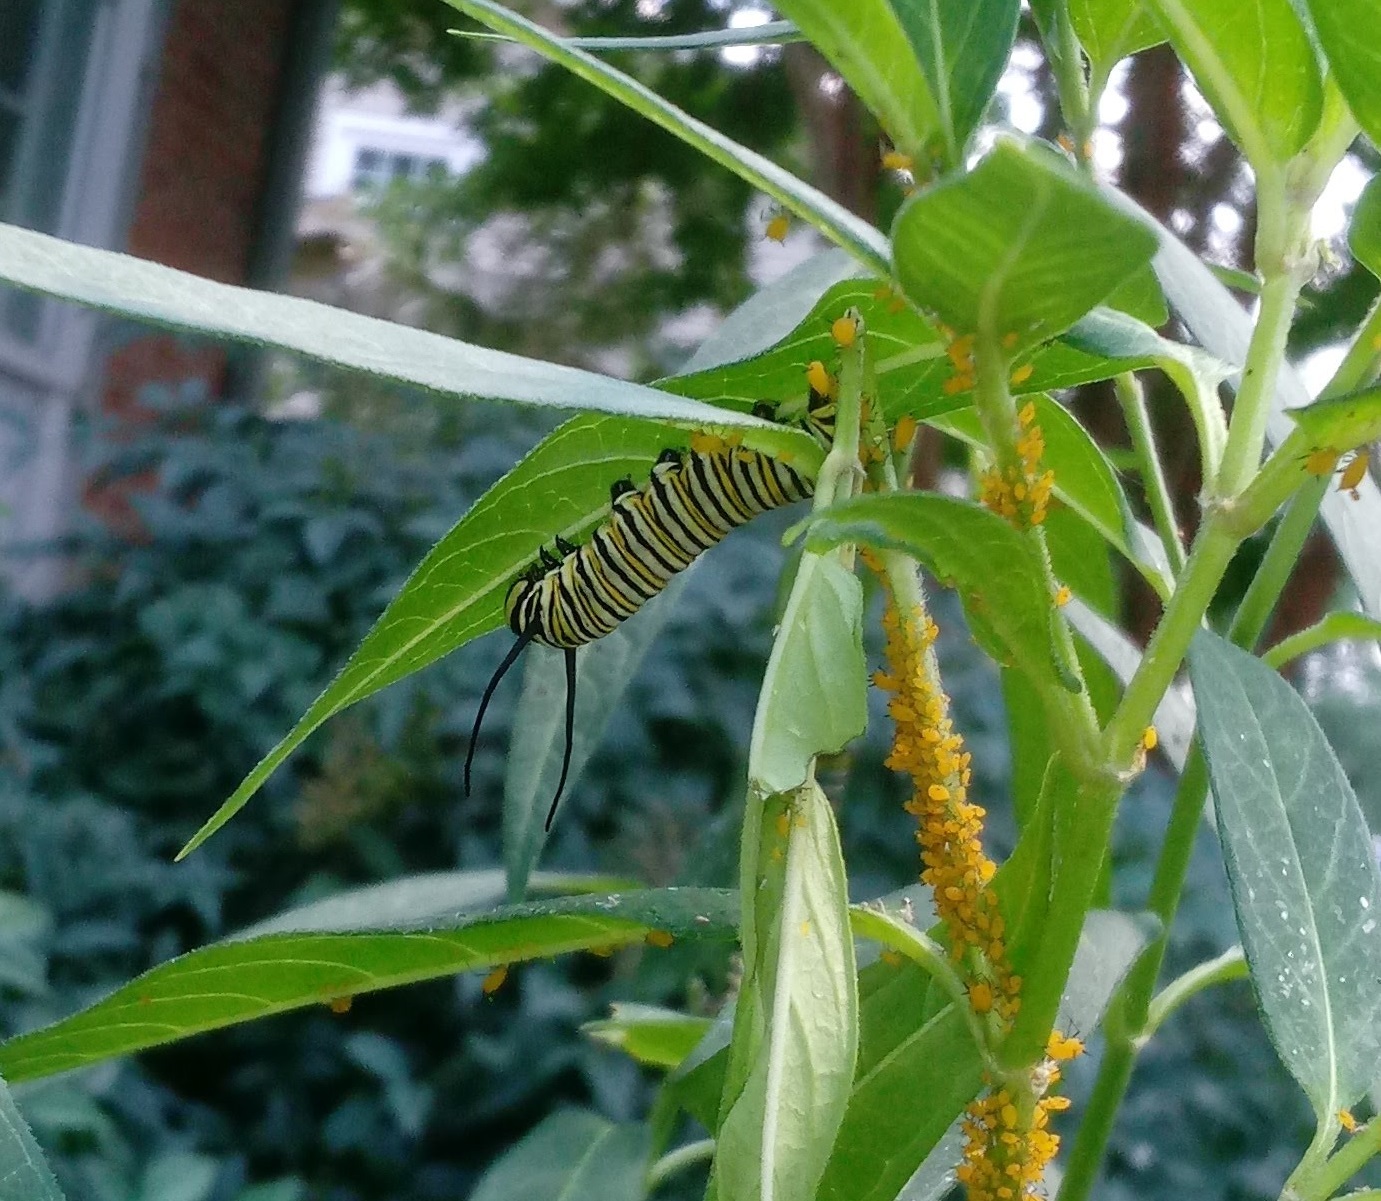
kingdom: Animalia
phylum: Arthropoda
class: Insecta
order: Lepidoptera
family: Nymphalidae
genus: Danaus
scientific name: Danaus plexippus
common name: Monarch
